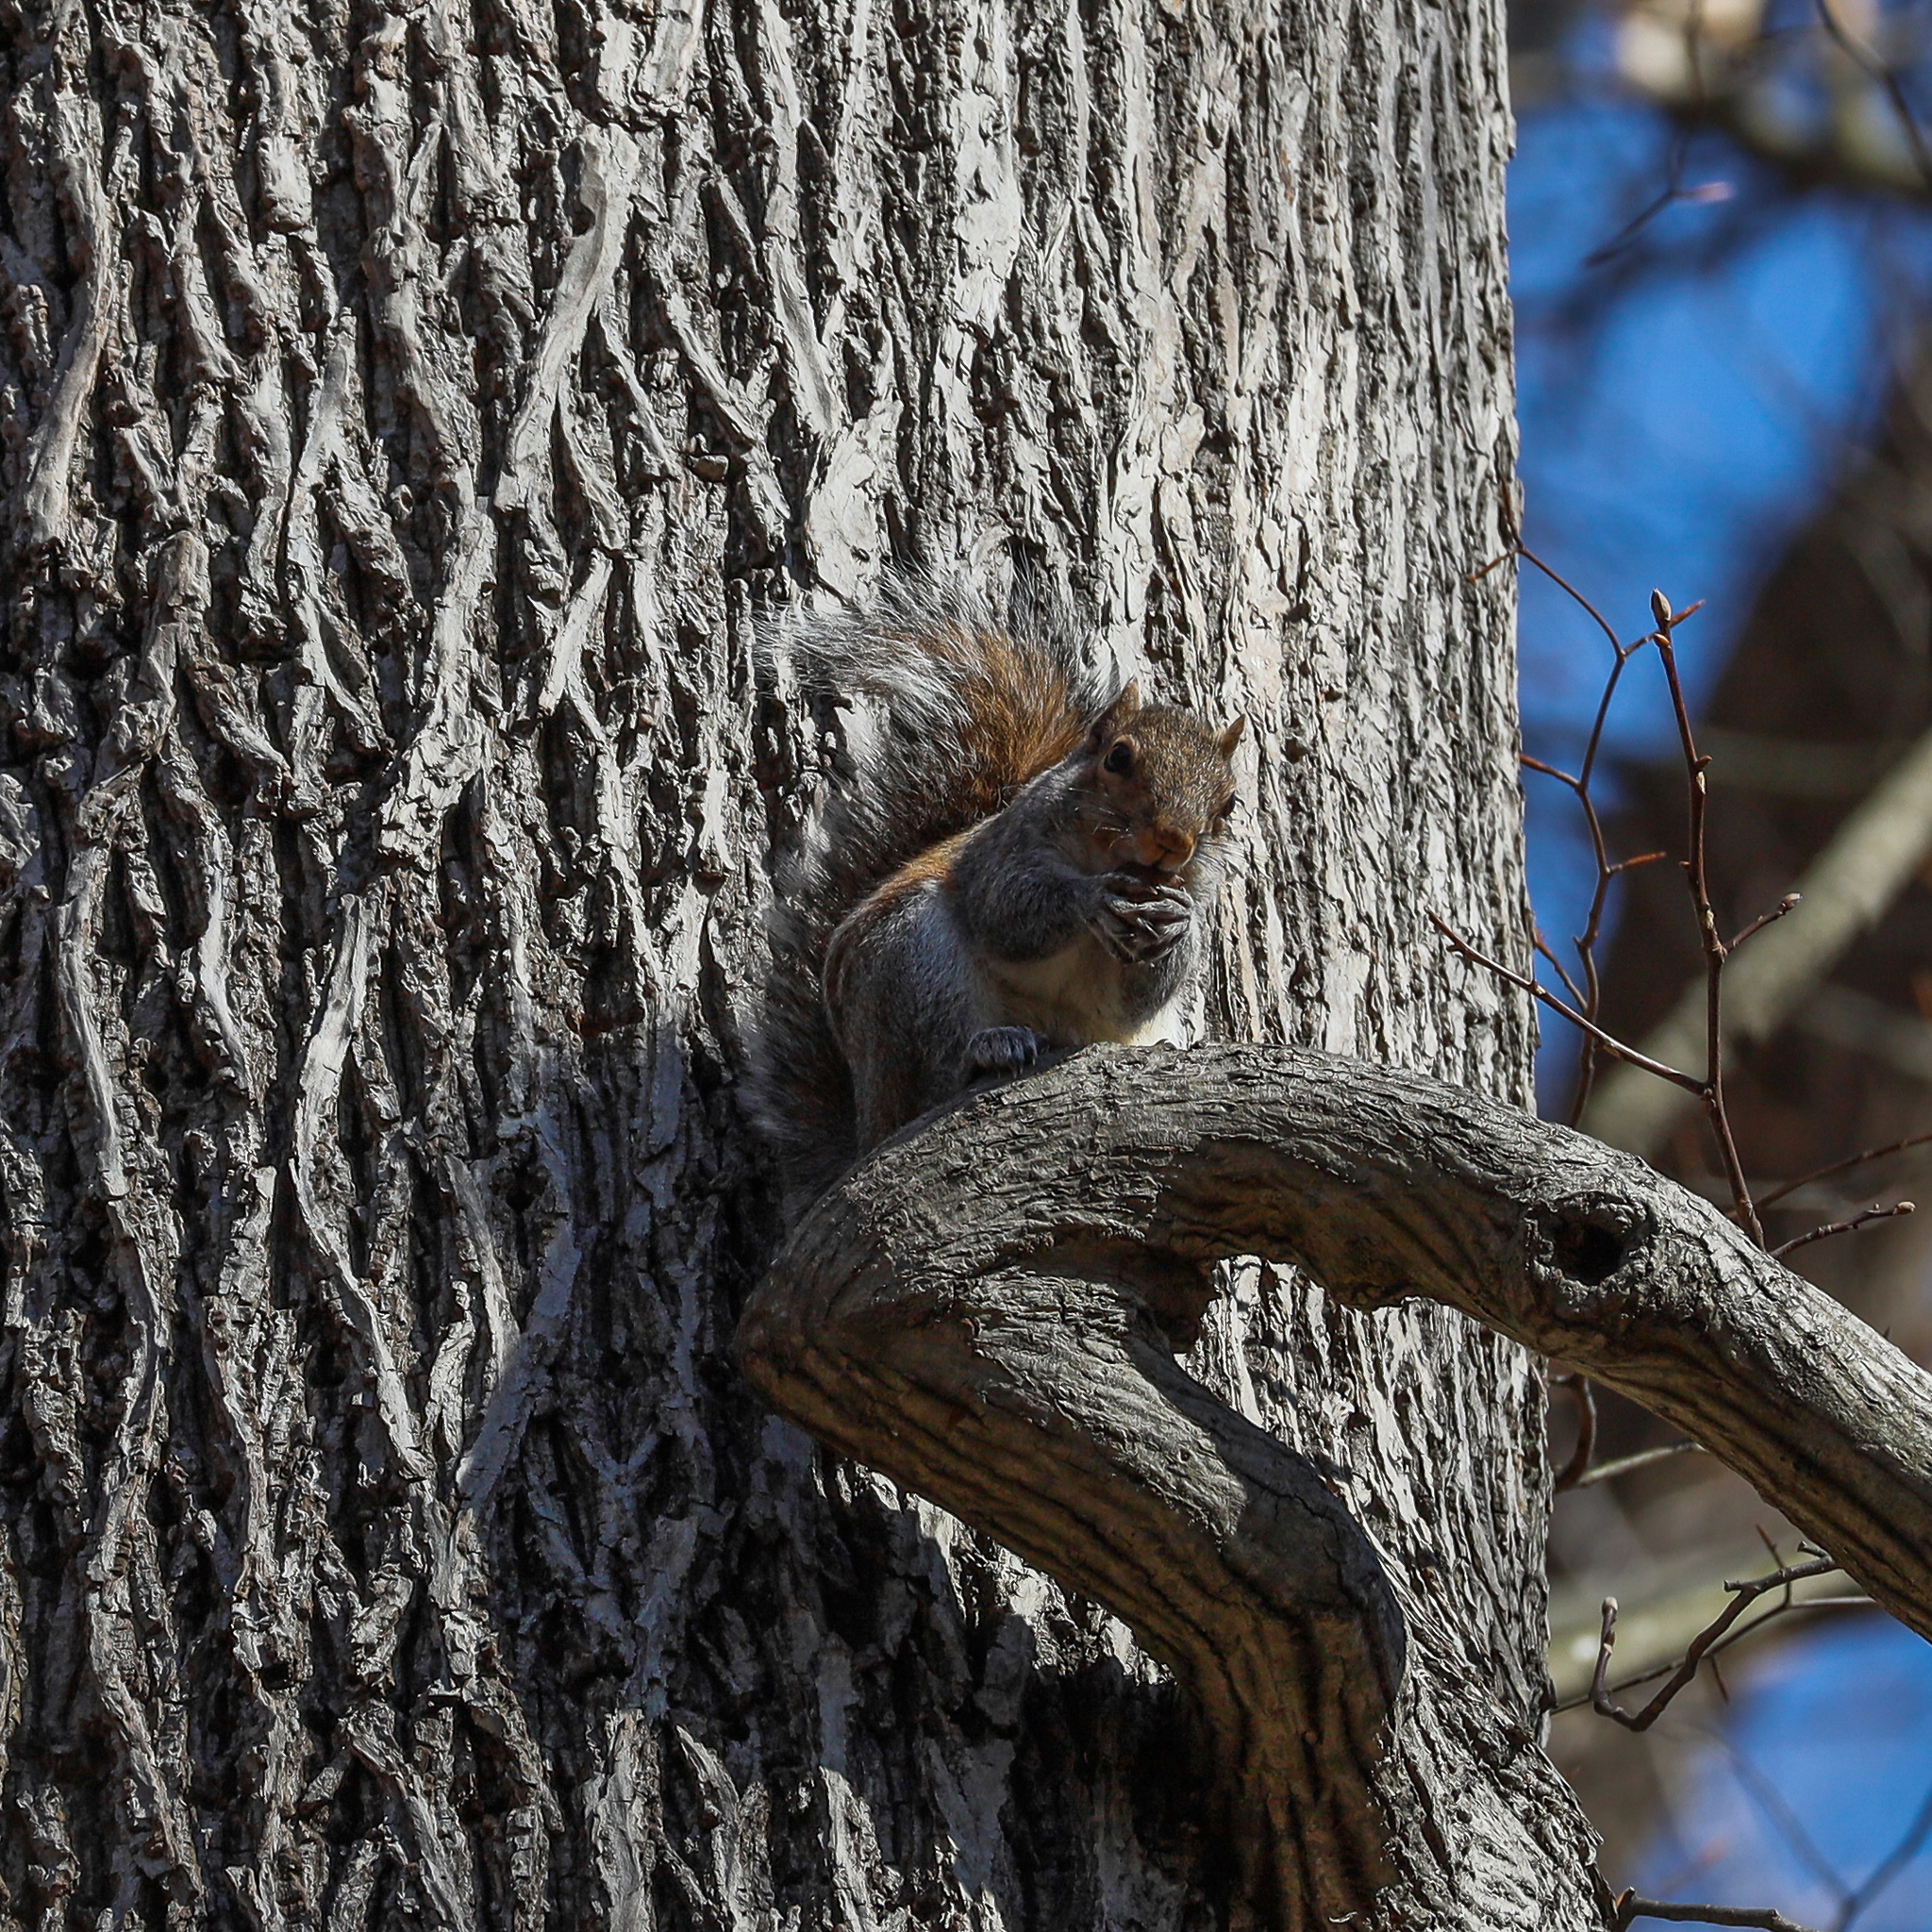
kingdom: Animalia
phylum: Chordata
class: Mammalia
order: Rodentia
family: Sciuridae
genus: Sciurus
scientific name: Sciurus carolinensis
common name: Eastern gray squirrel
